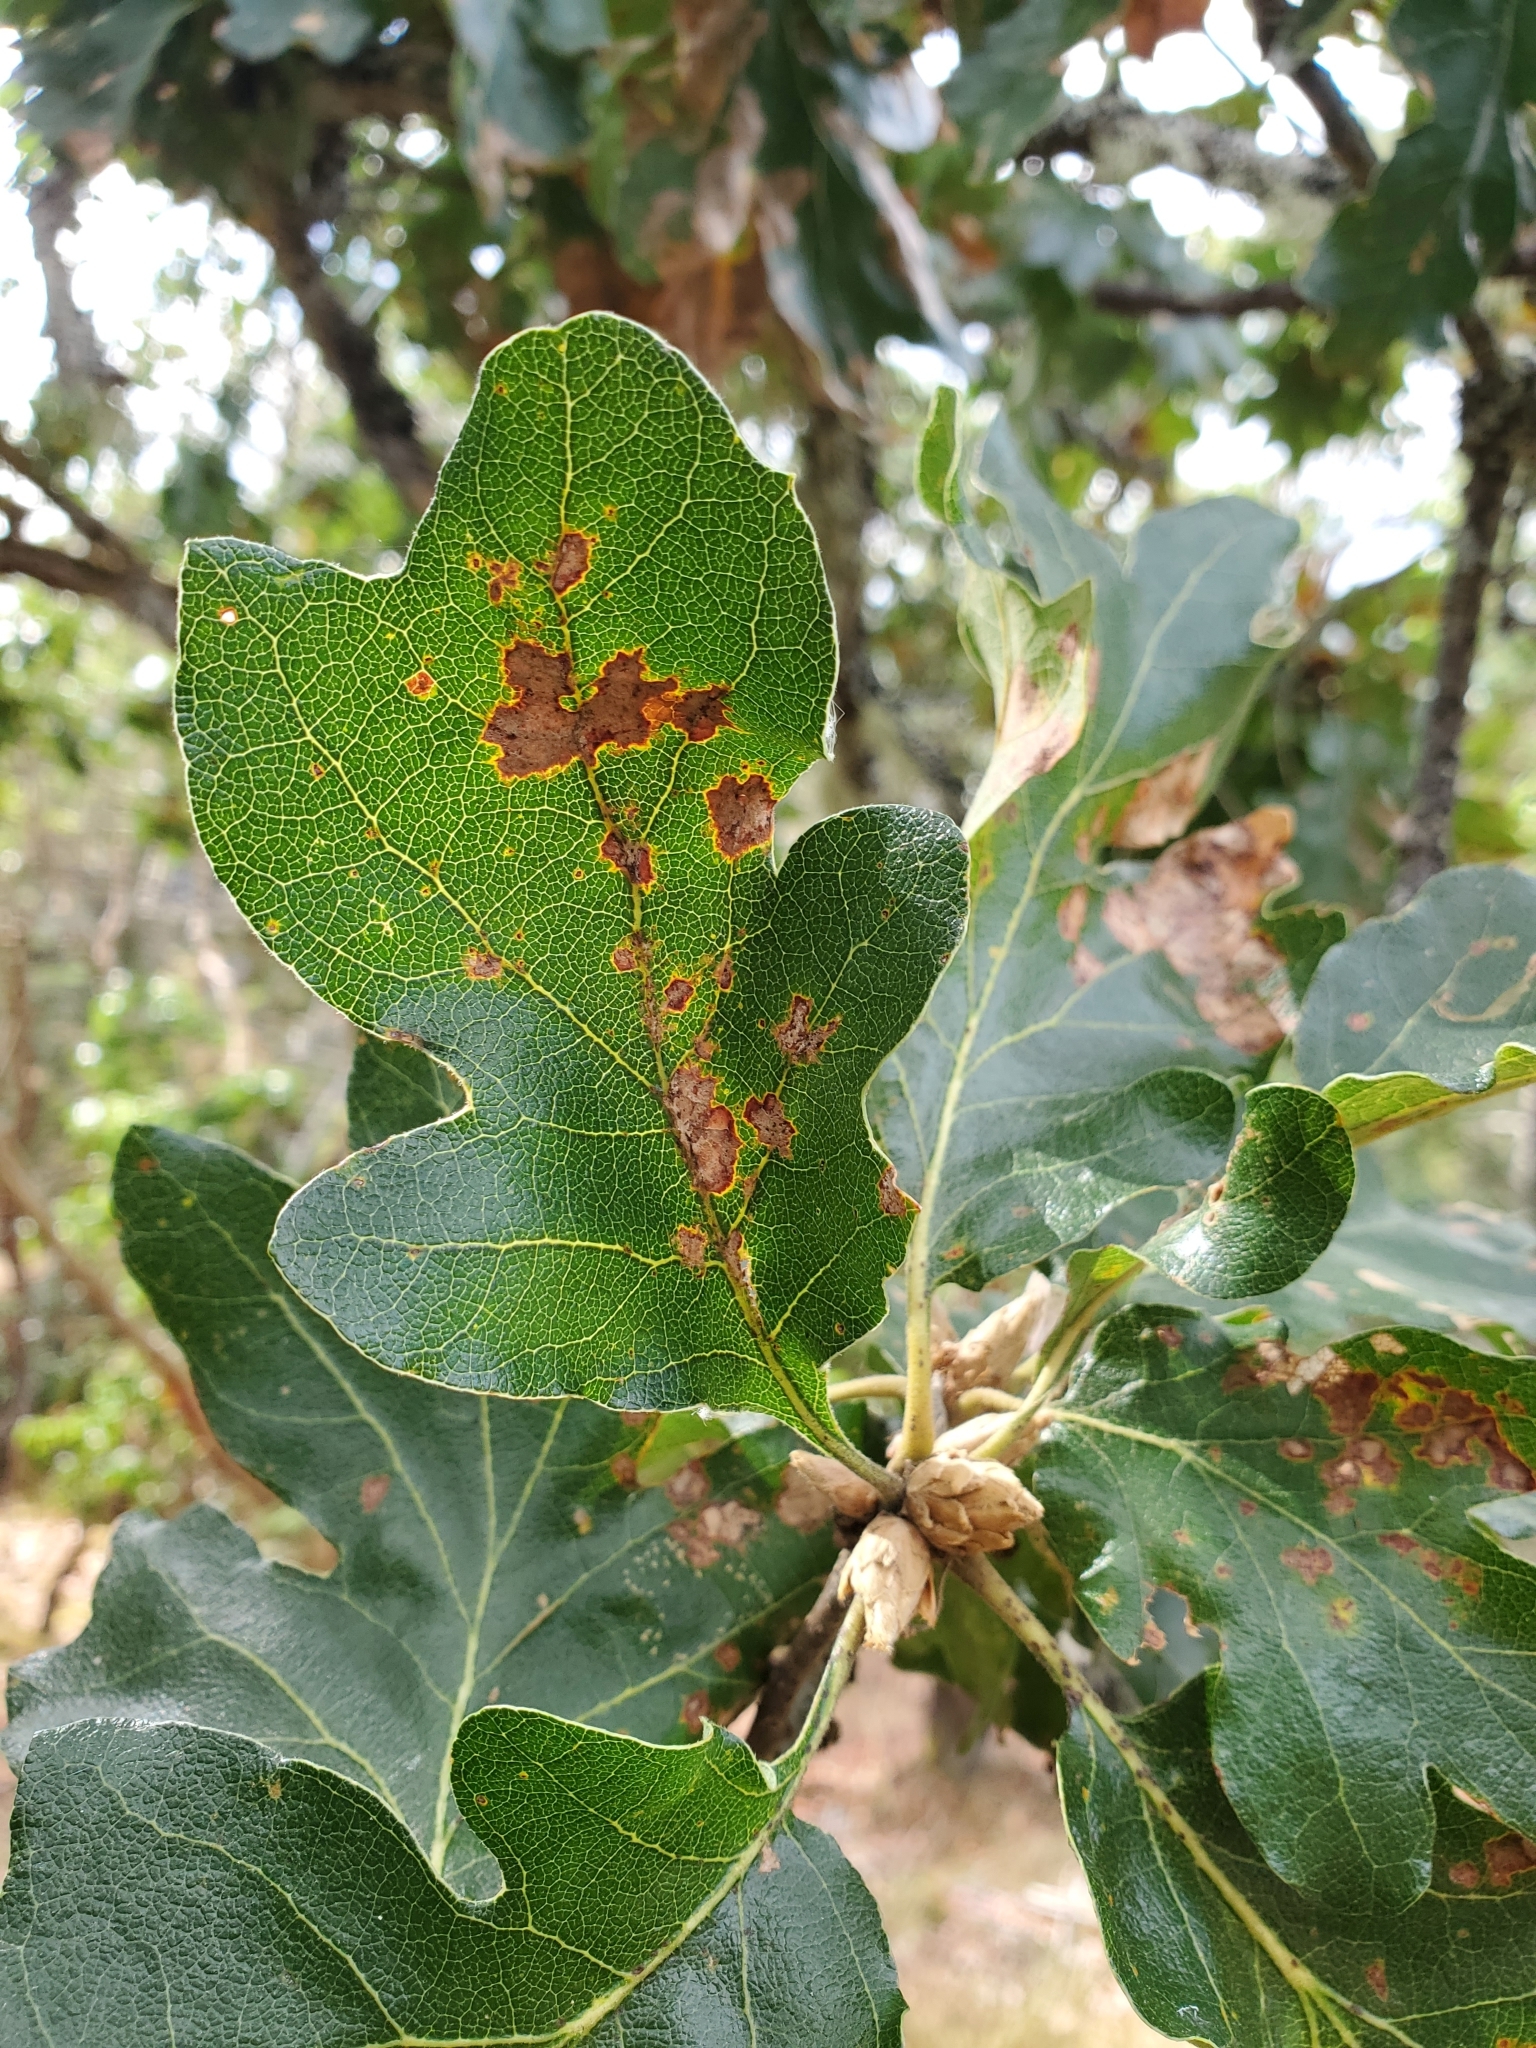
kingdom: Plantae
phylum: Tracheophyta
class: Magnoliopsida
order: Fagales
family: Fagaceae
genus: Quercus
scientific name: Quercus garryana
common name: Garry oak
